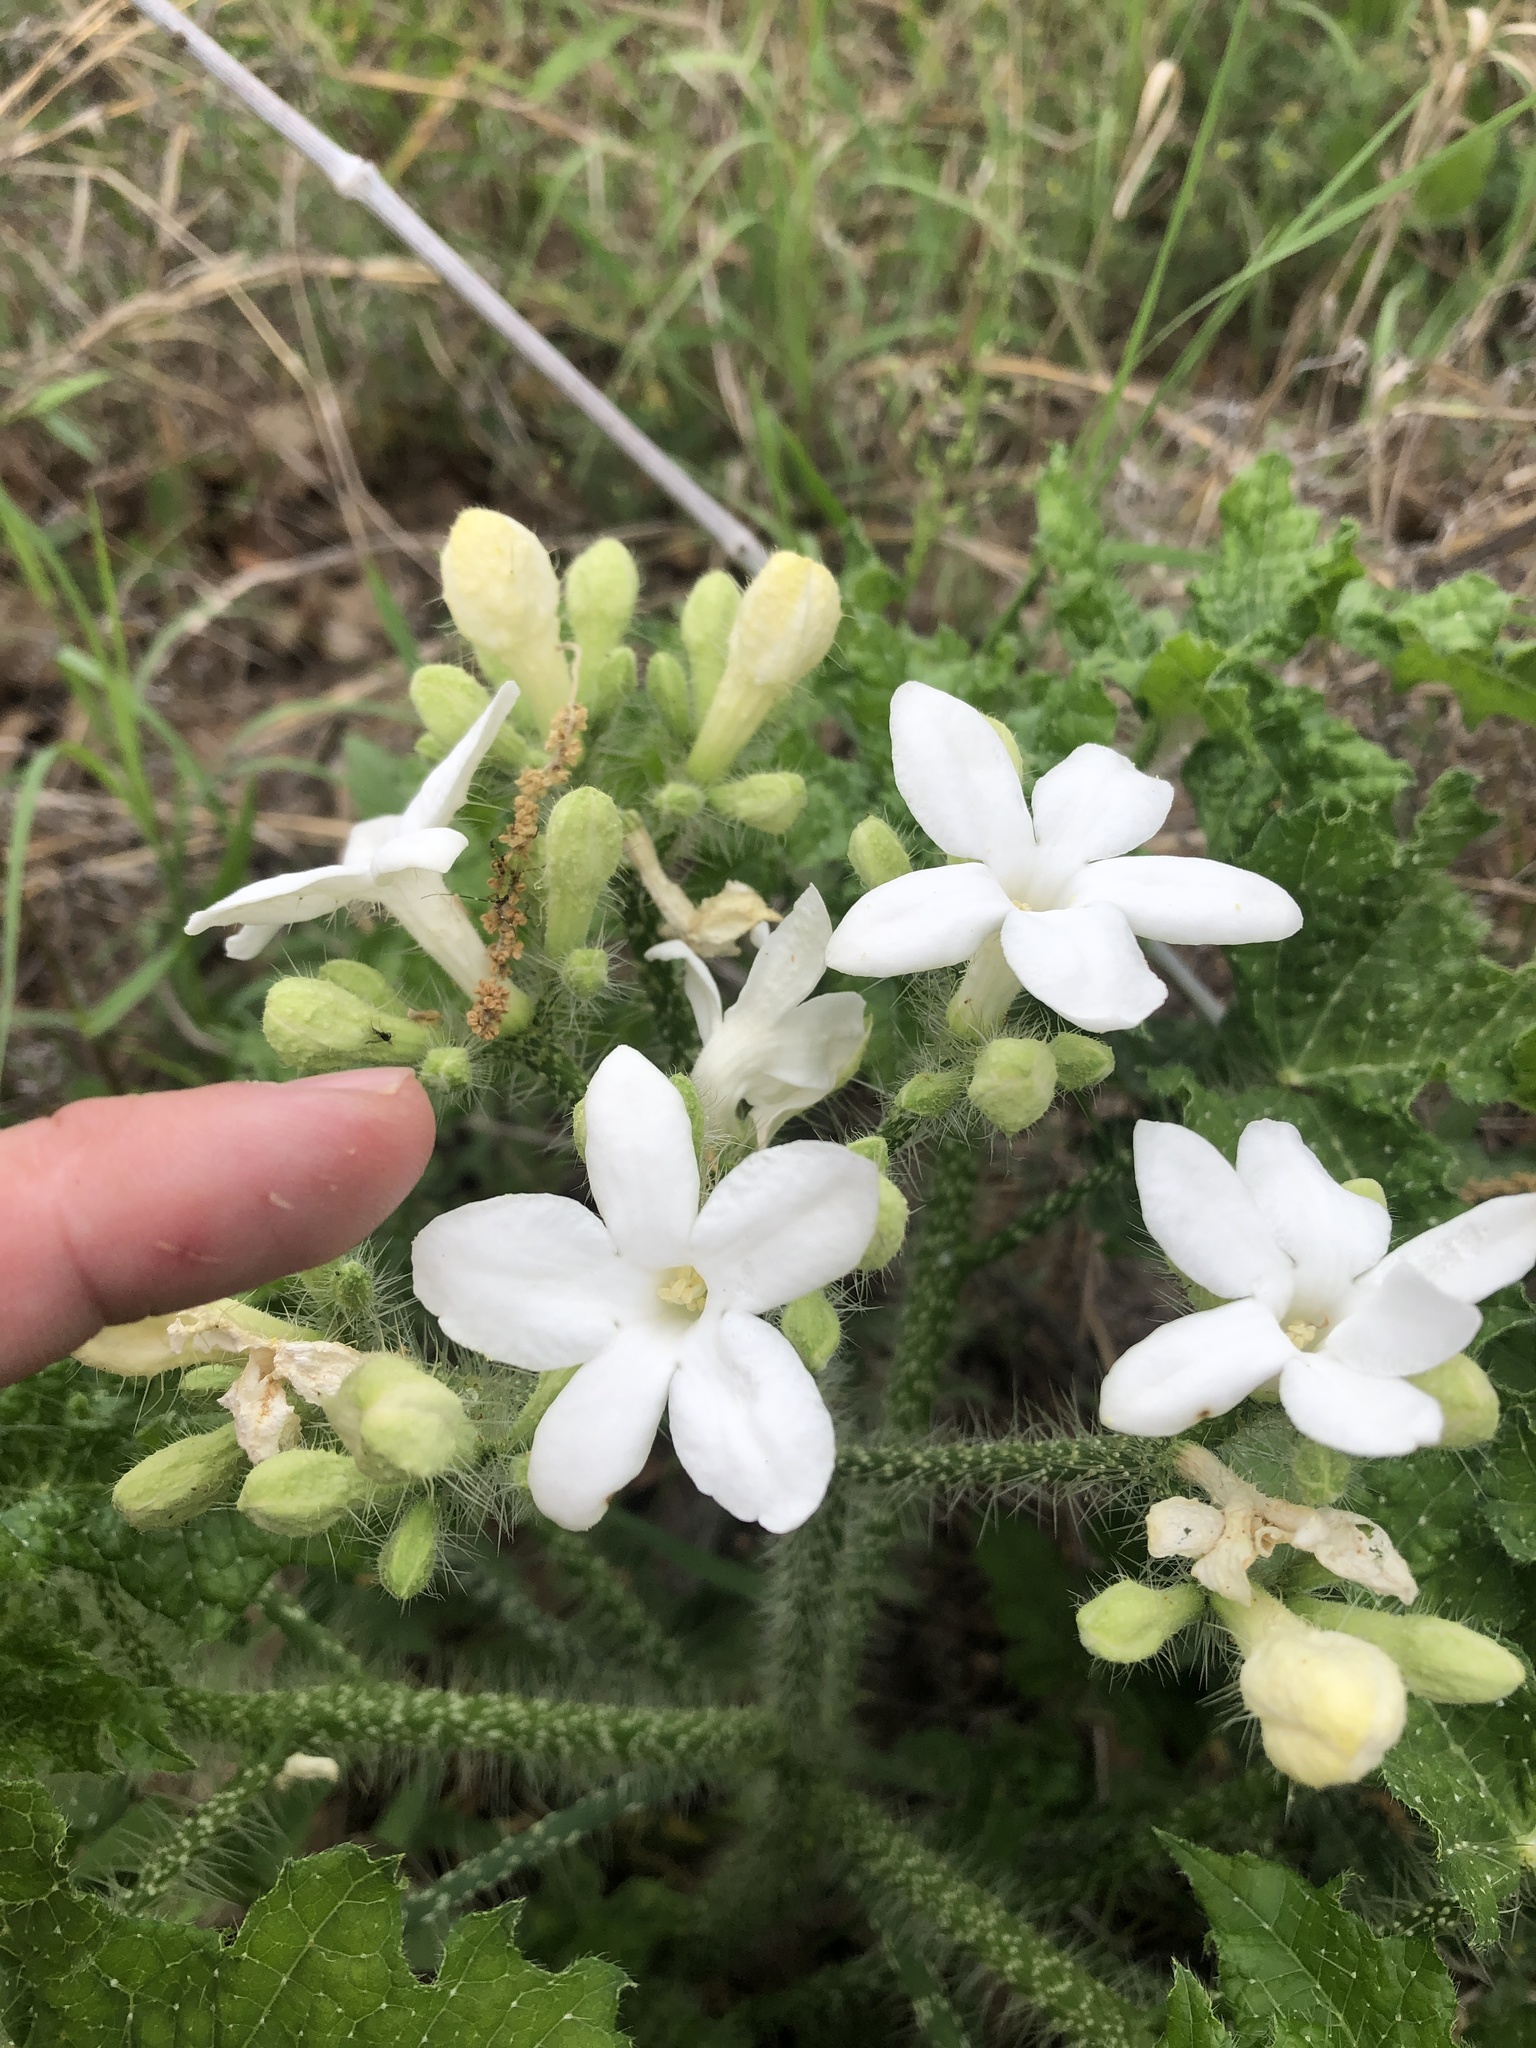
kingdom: Plantae
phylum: Tracheophyta
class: Magnoliopsida
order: Malpighiales
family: Euphorbiaceae
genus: Cnidoscolus
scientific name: Cnidoscolus texanus
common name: Texas bull-nettle
